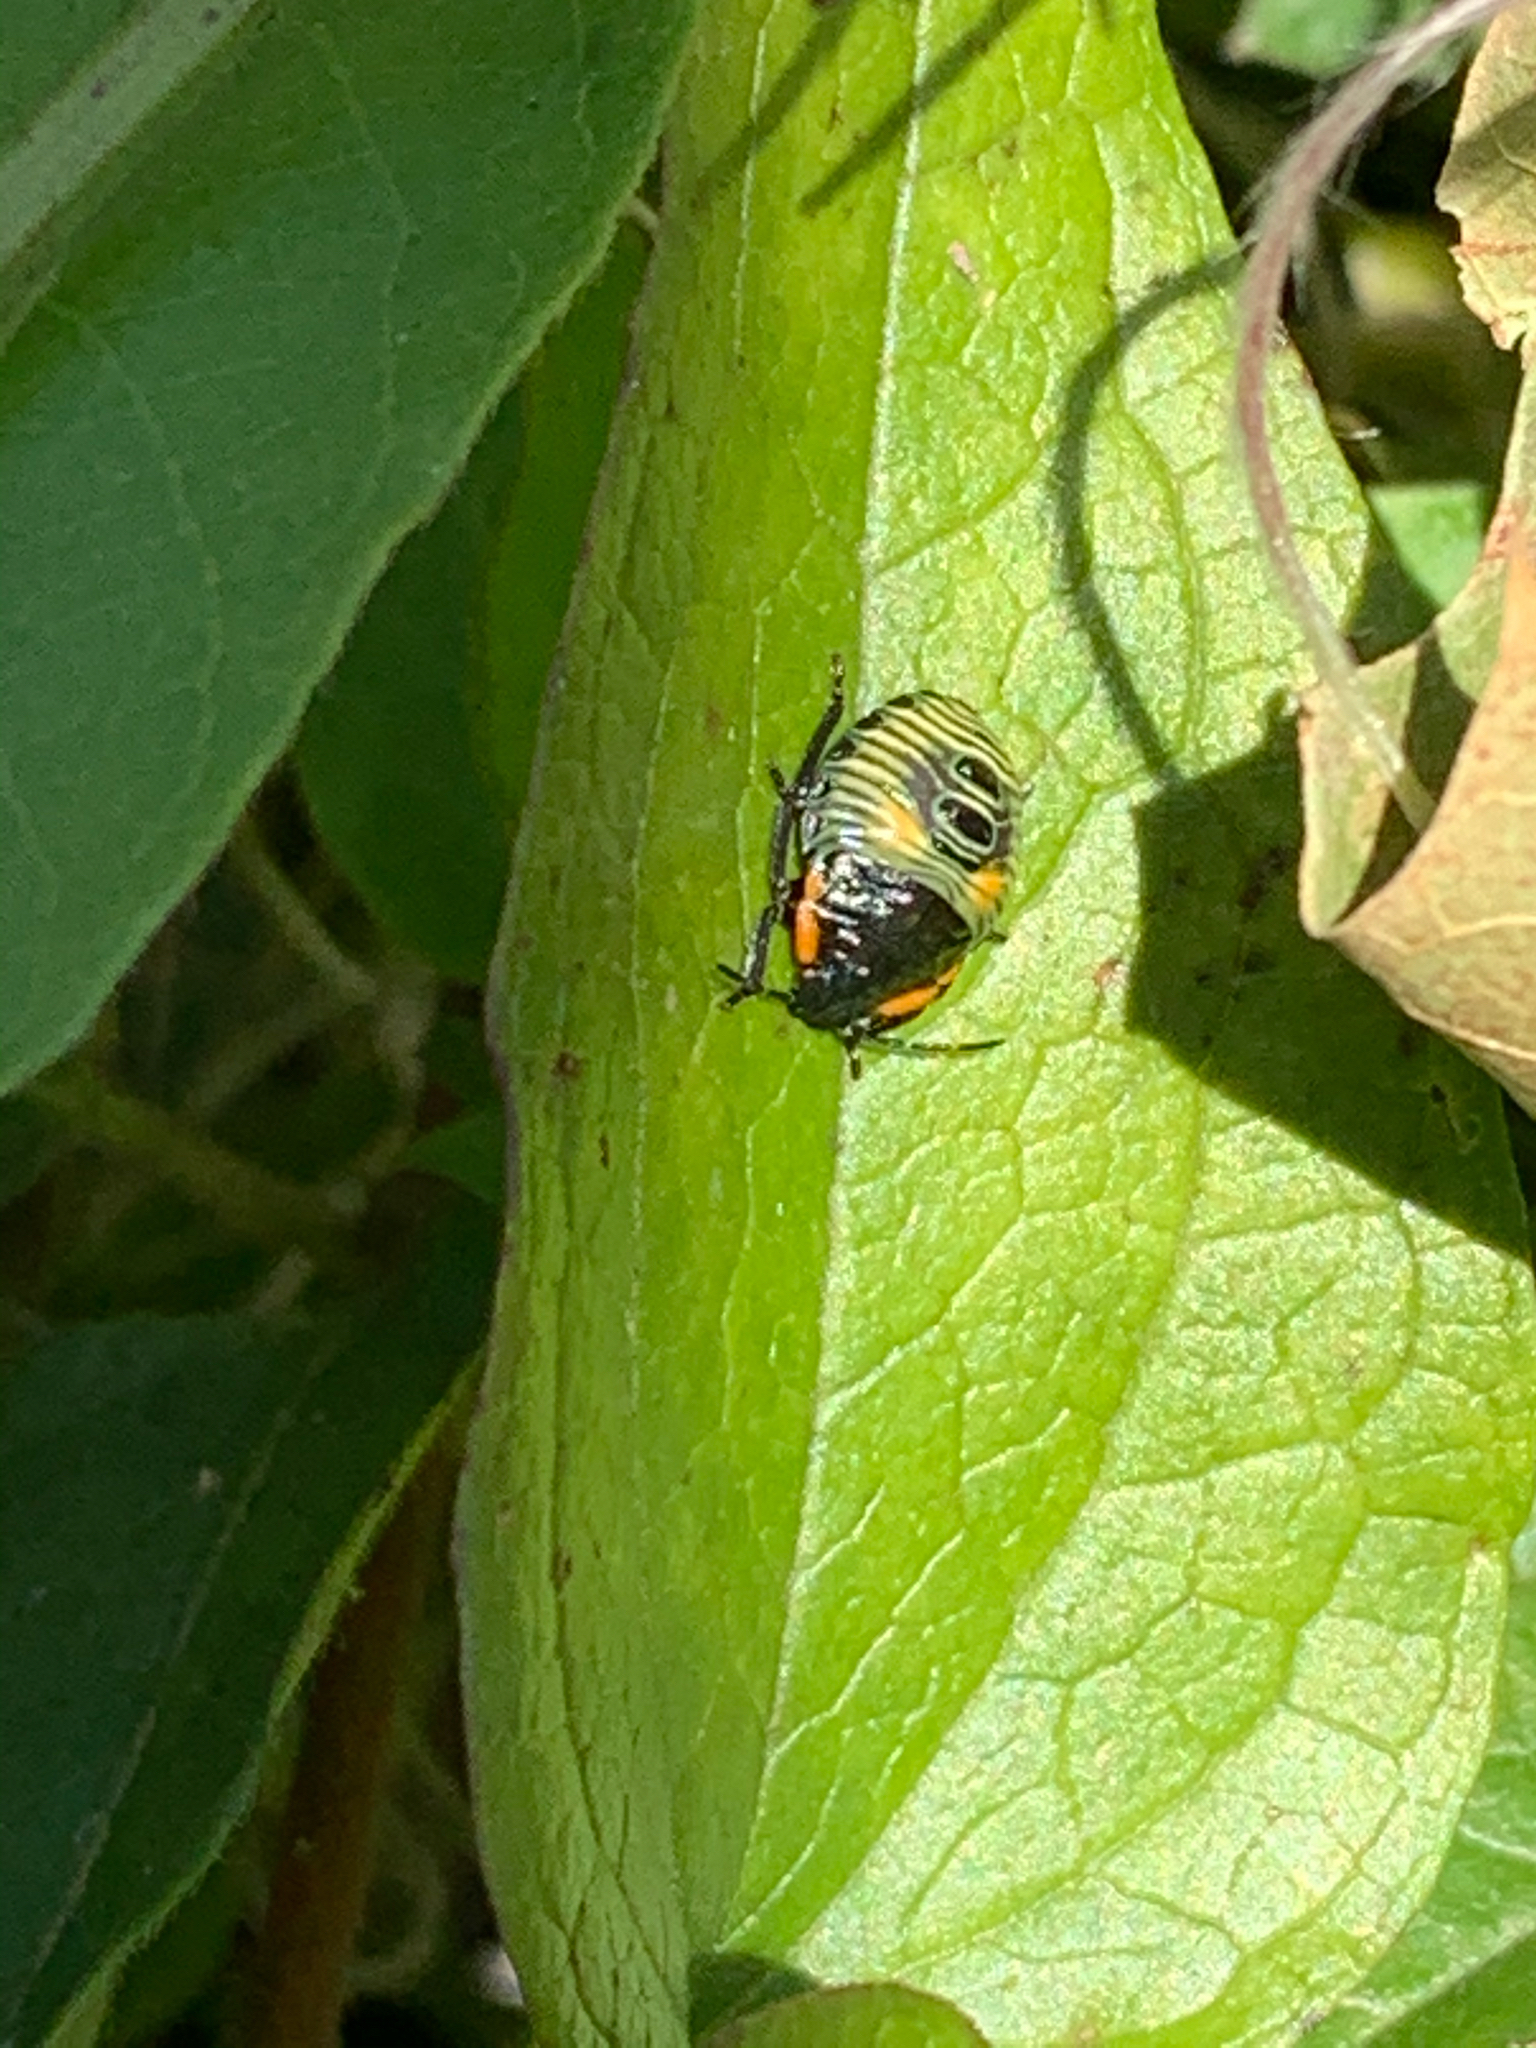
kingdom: Animalia
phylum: Arthropoda
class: Insecta
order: Hemiptera
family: Pentatomidae
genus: Chinavia
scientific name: Chinavia hilaris
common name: Green stink bug
